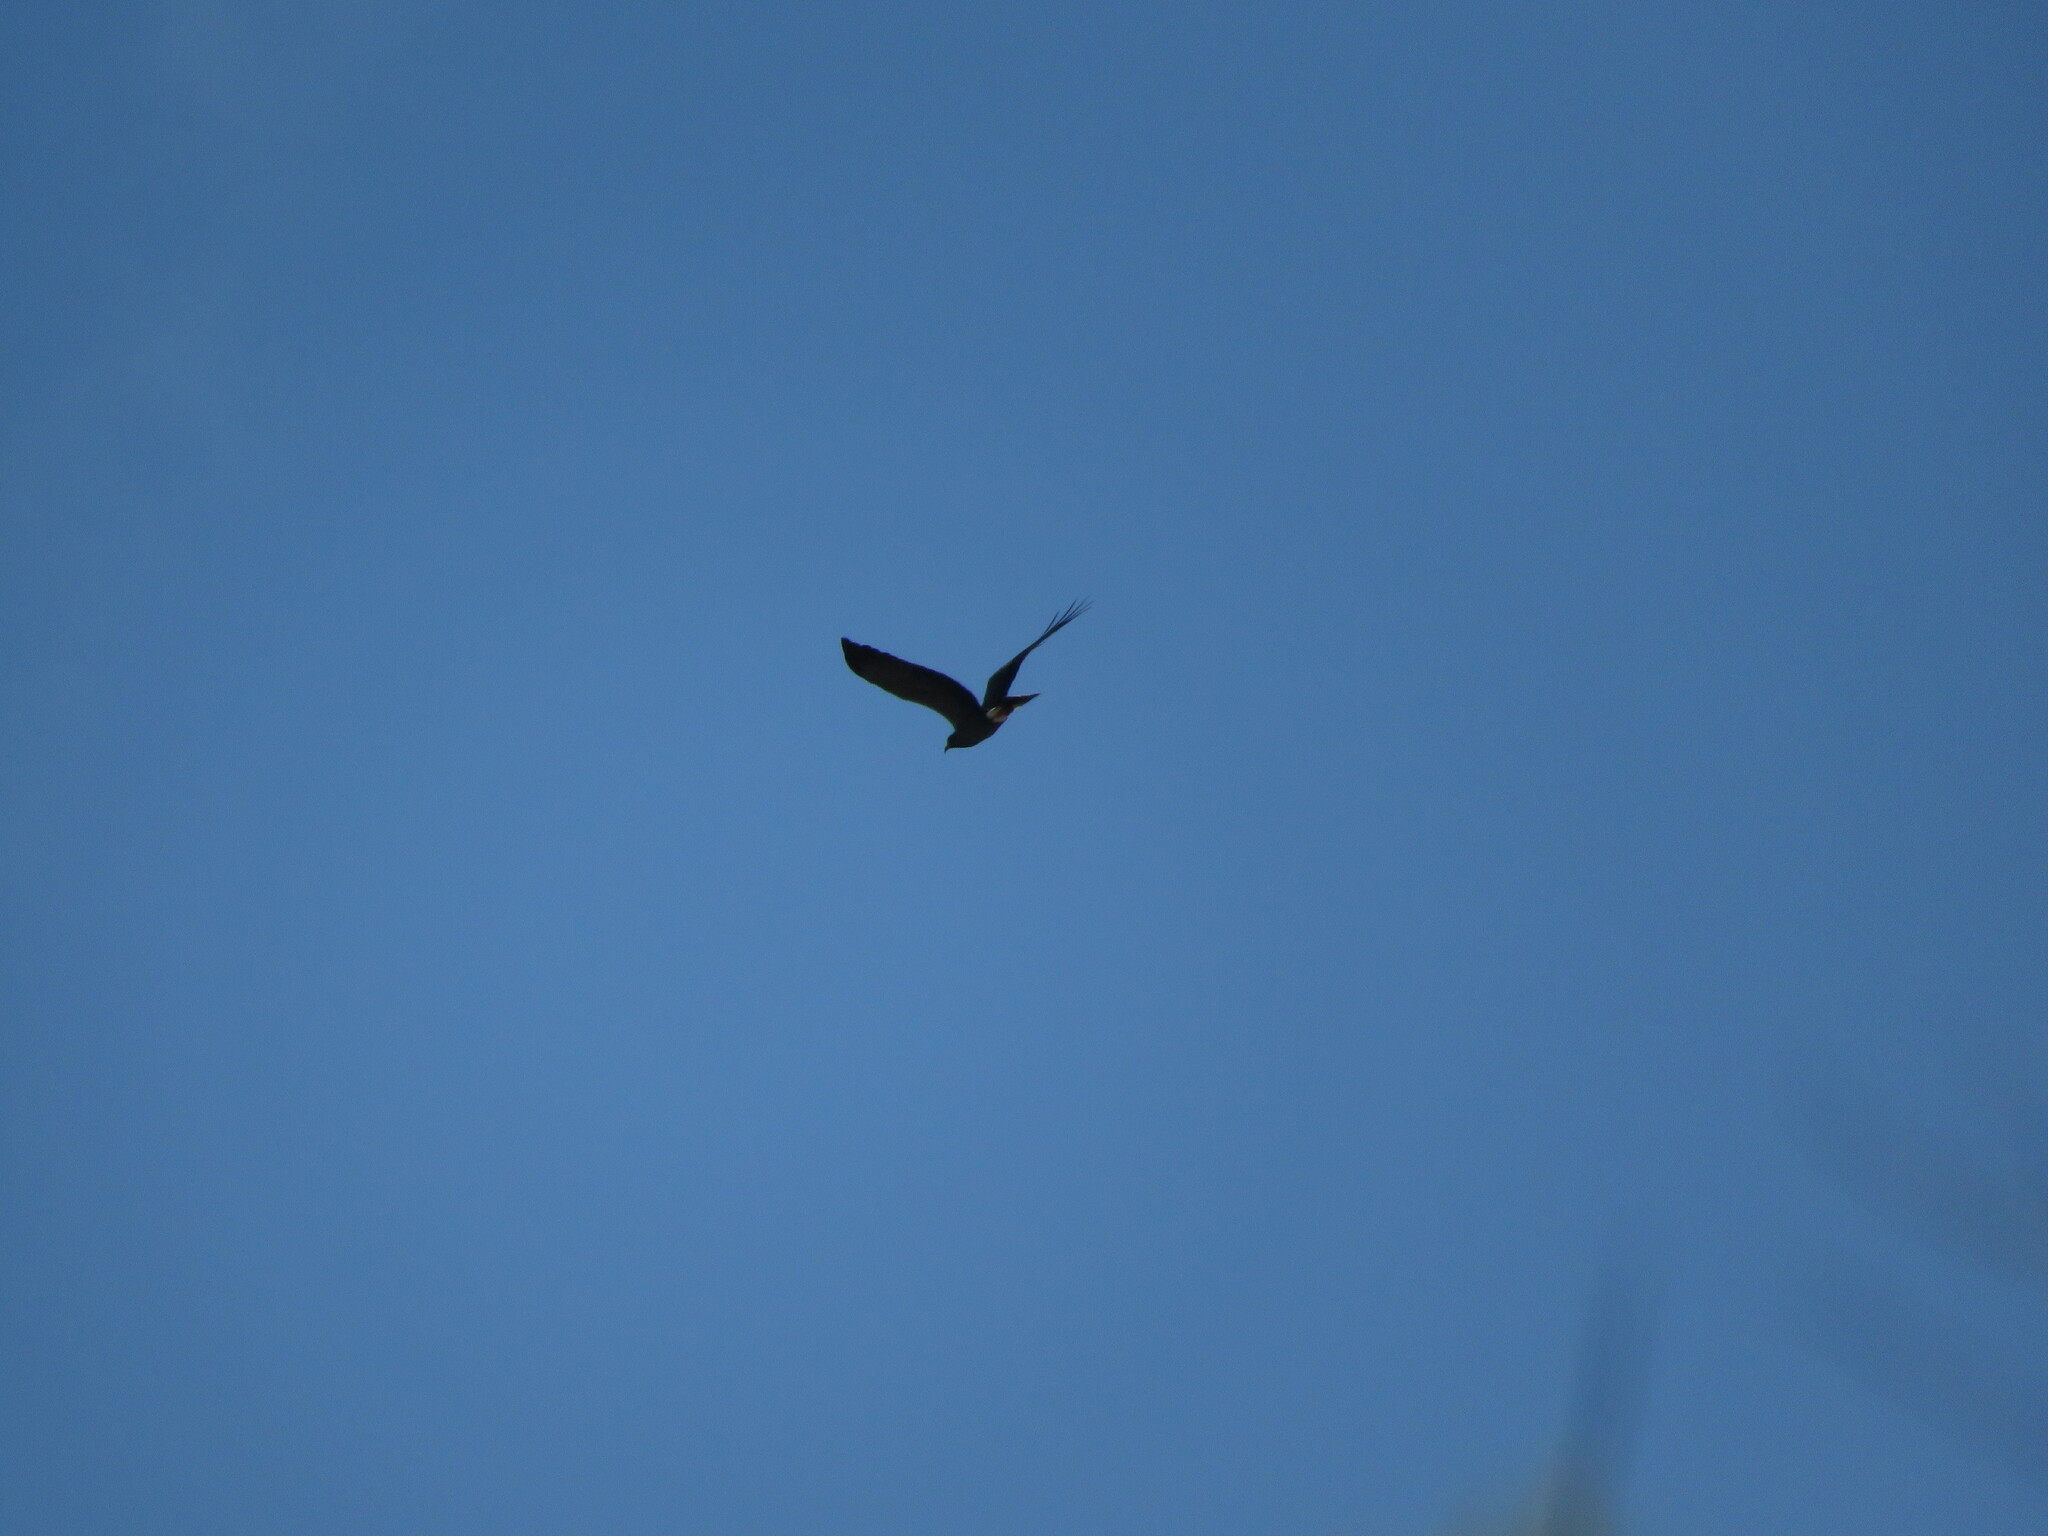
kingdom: Animalia
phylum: Chordata
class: Aves
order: Accipitriformes
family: Accipitridae
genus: Rostrhamus
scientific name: Rostrhamus sociabilis
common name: Snail kite
